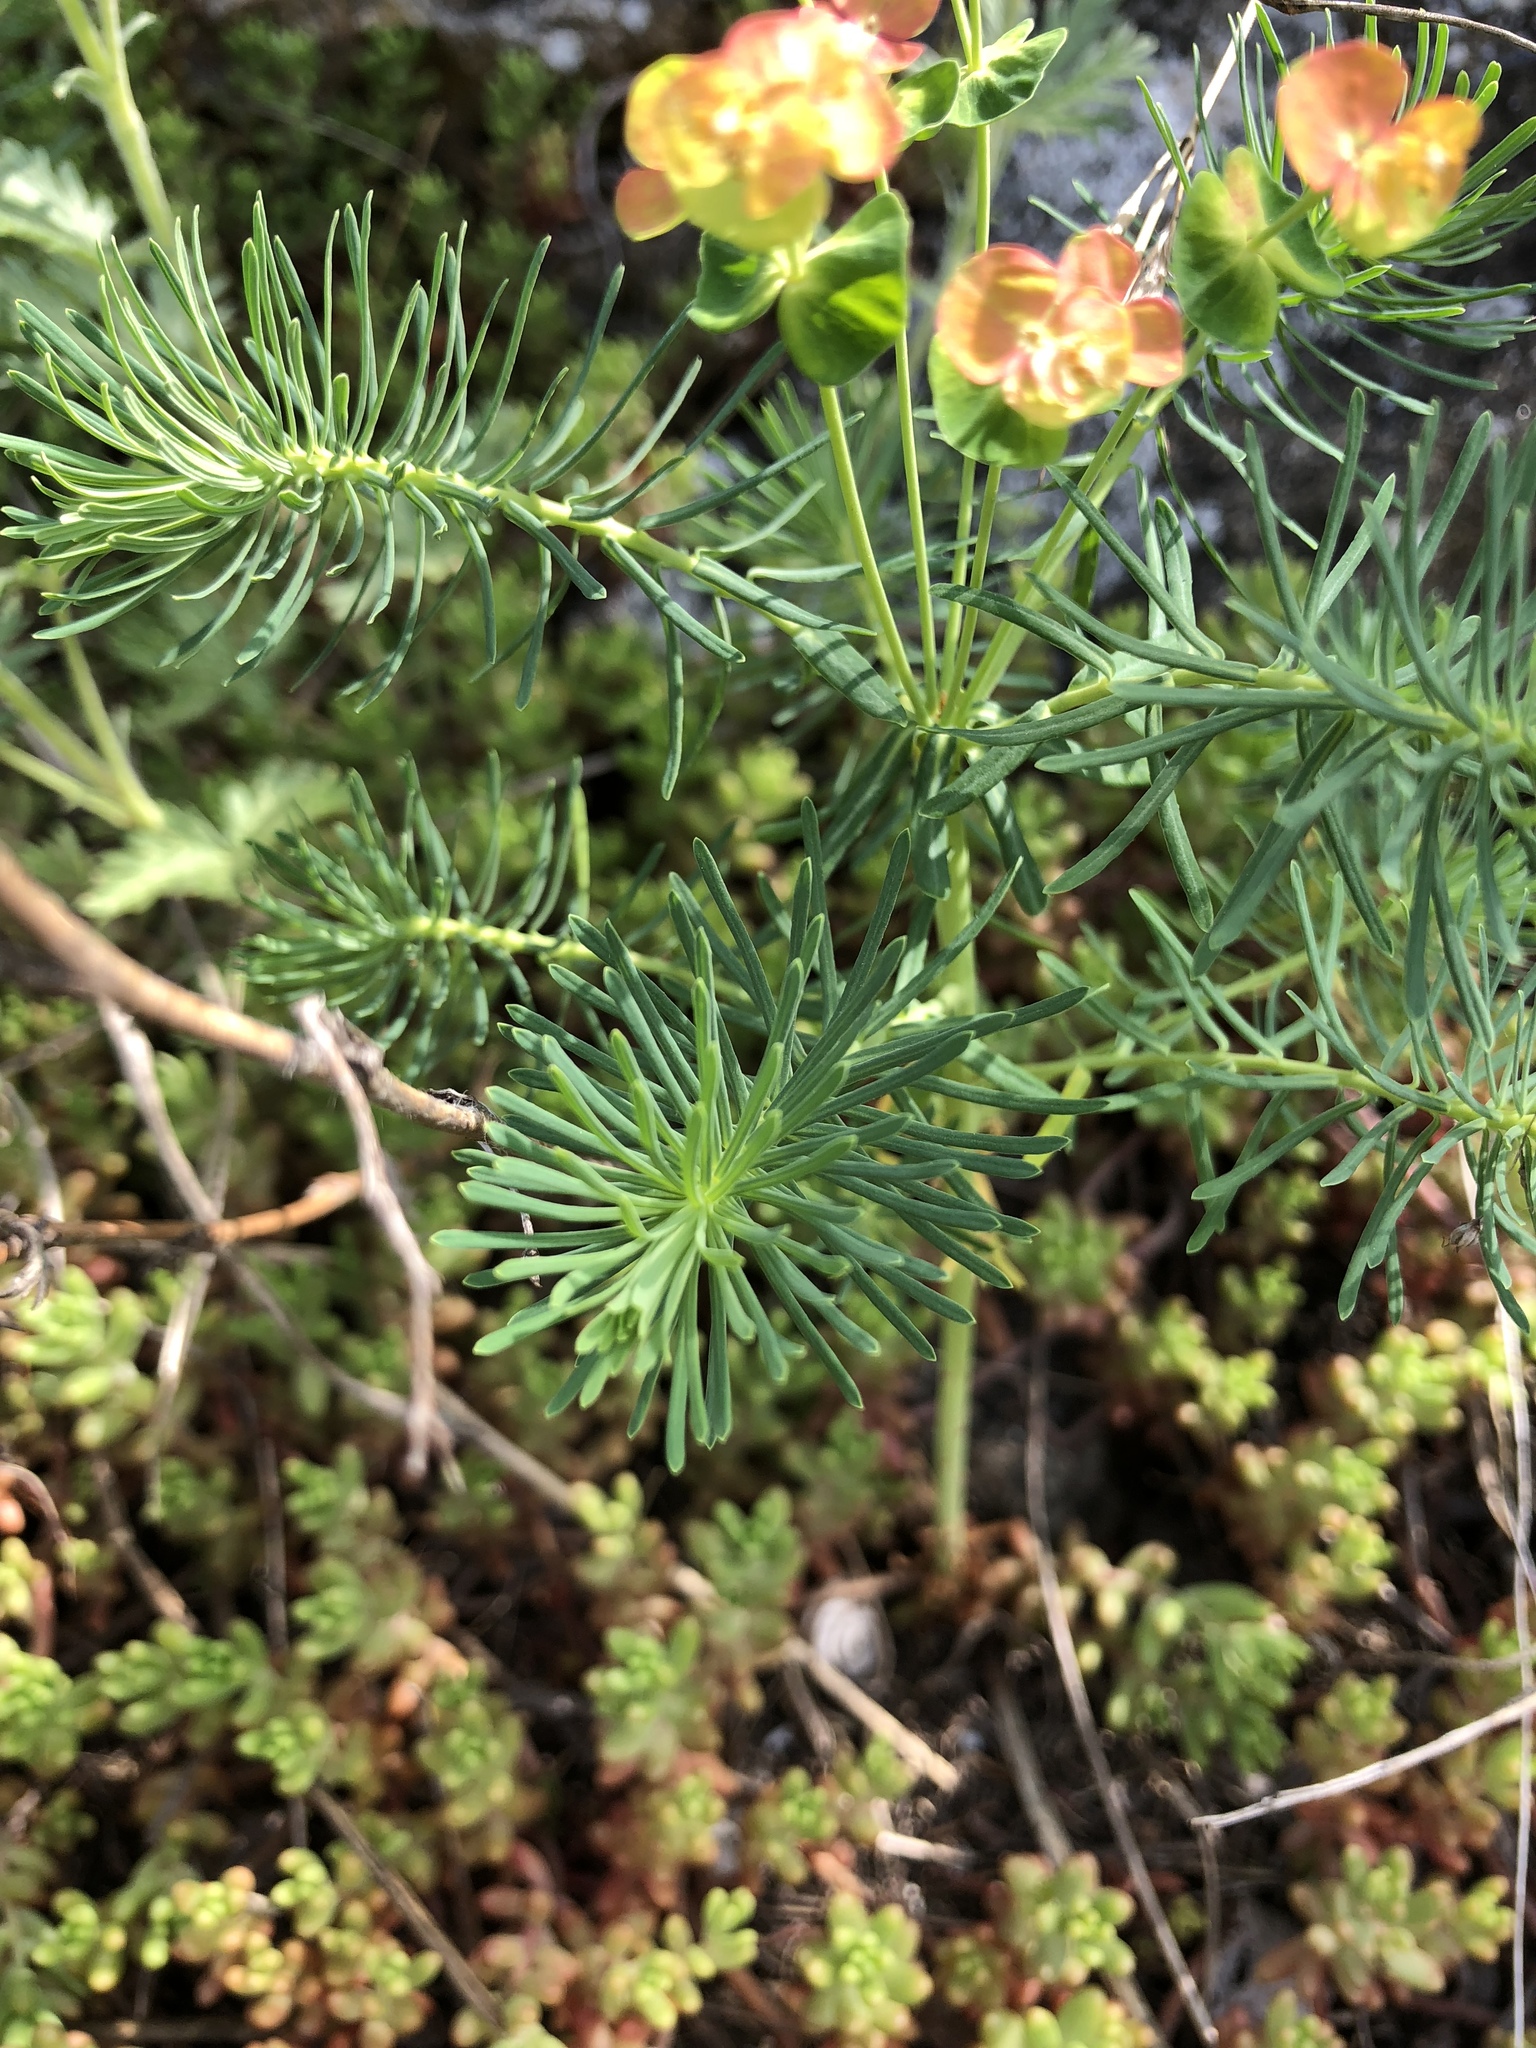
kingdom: Plantae
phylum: Tracheophyta
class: Magnoliopsida
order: Malpighiales
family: Euphorbiaceae
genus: Euphorbia
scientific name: Euphorbia cyparissias
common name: Cypress spurge
